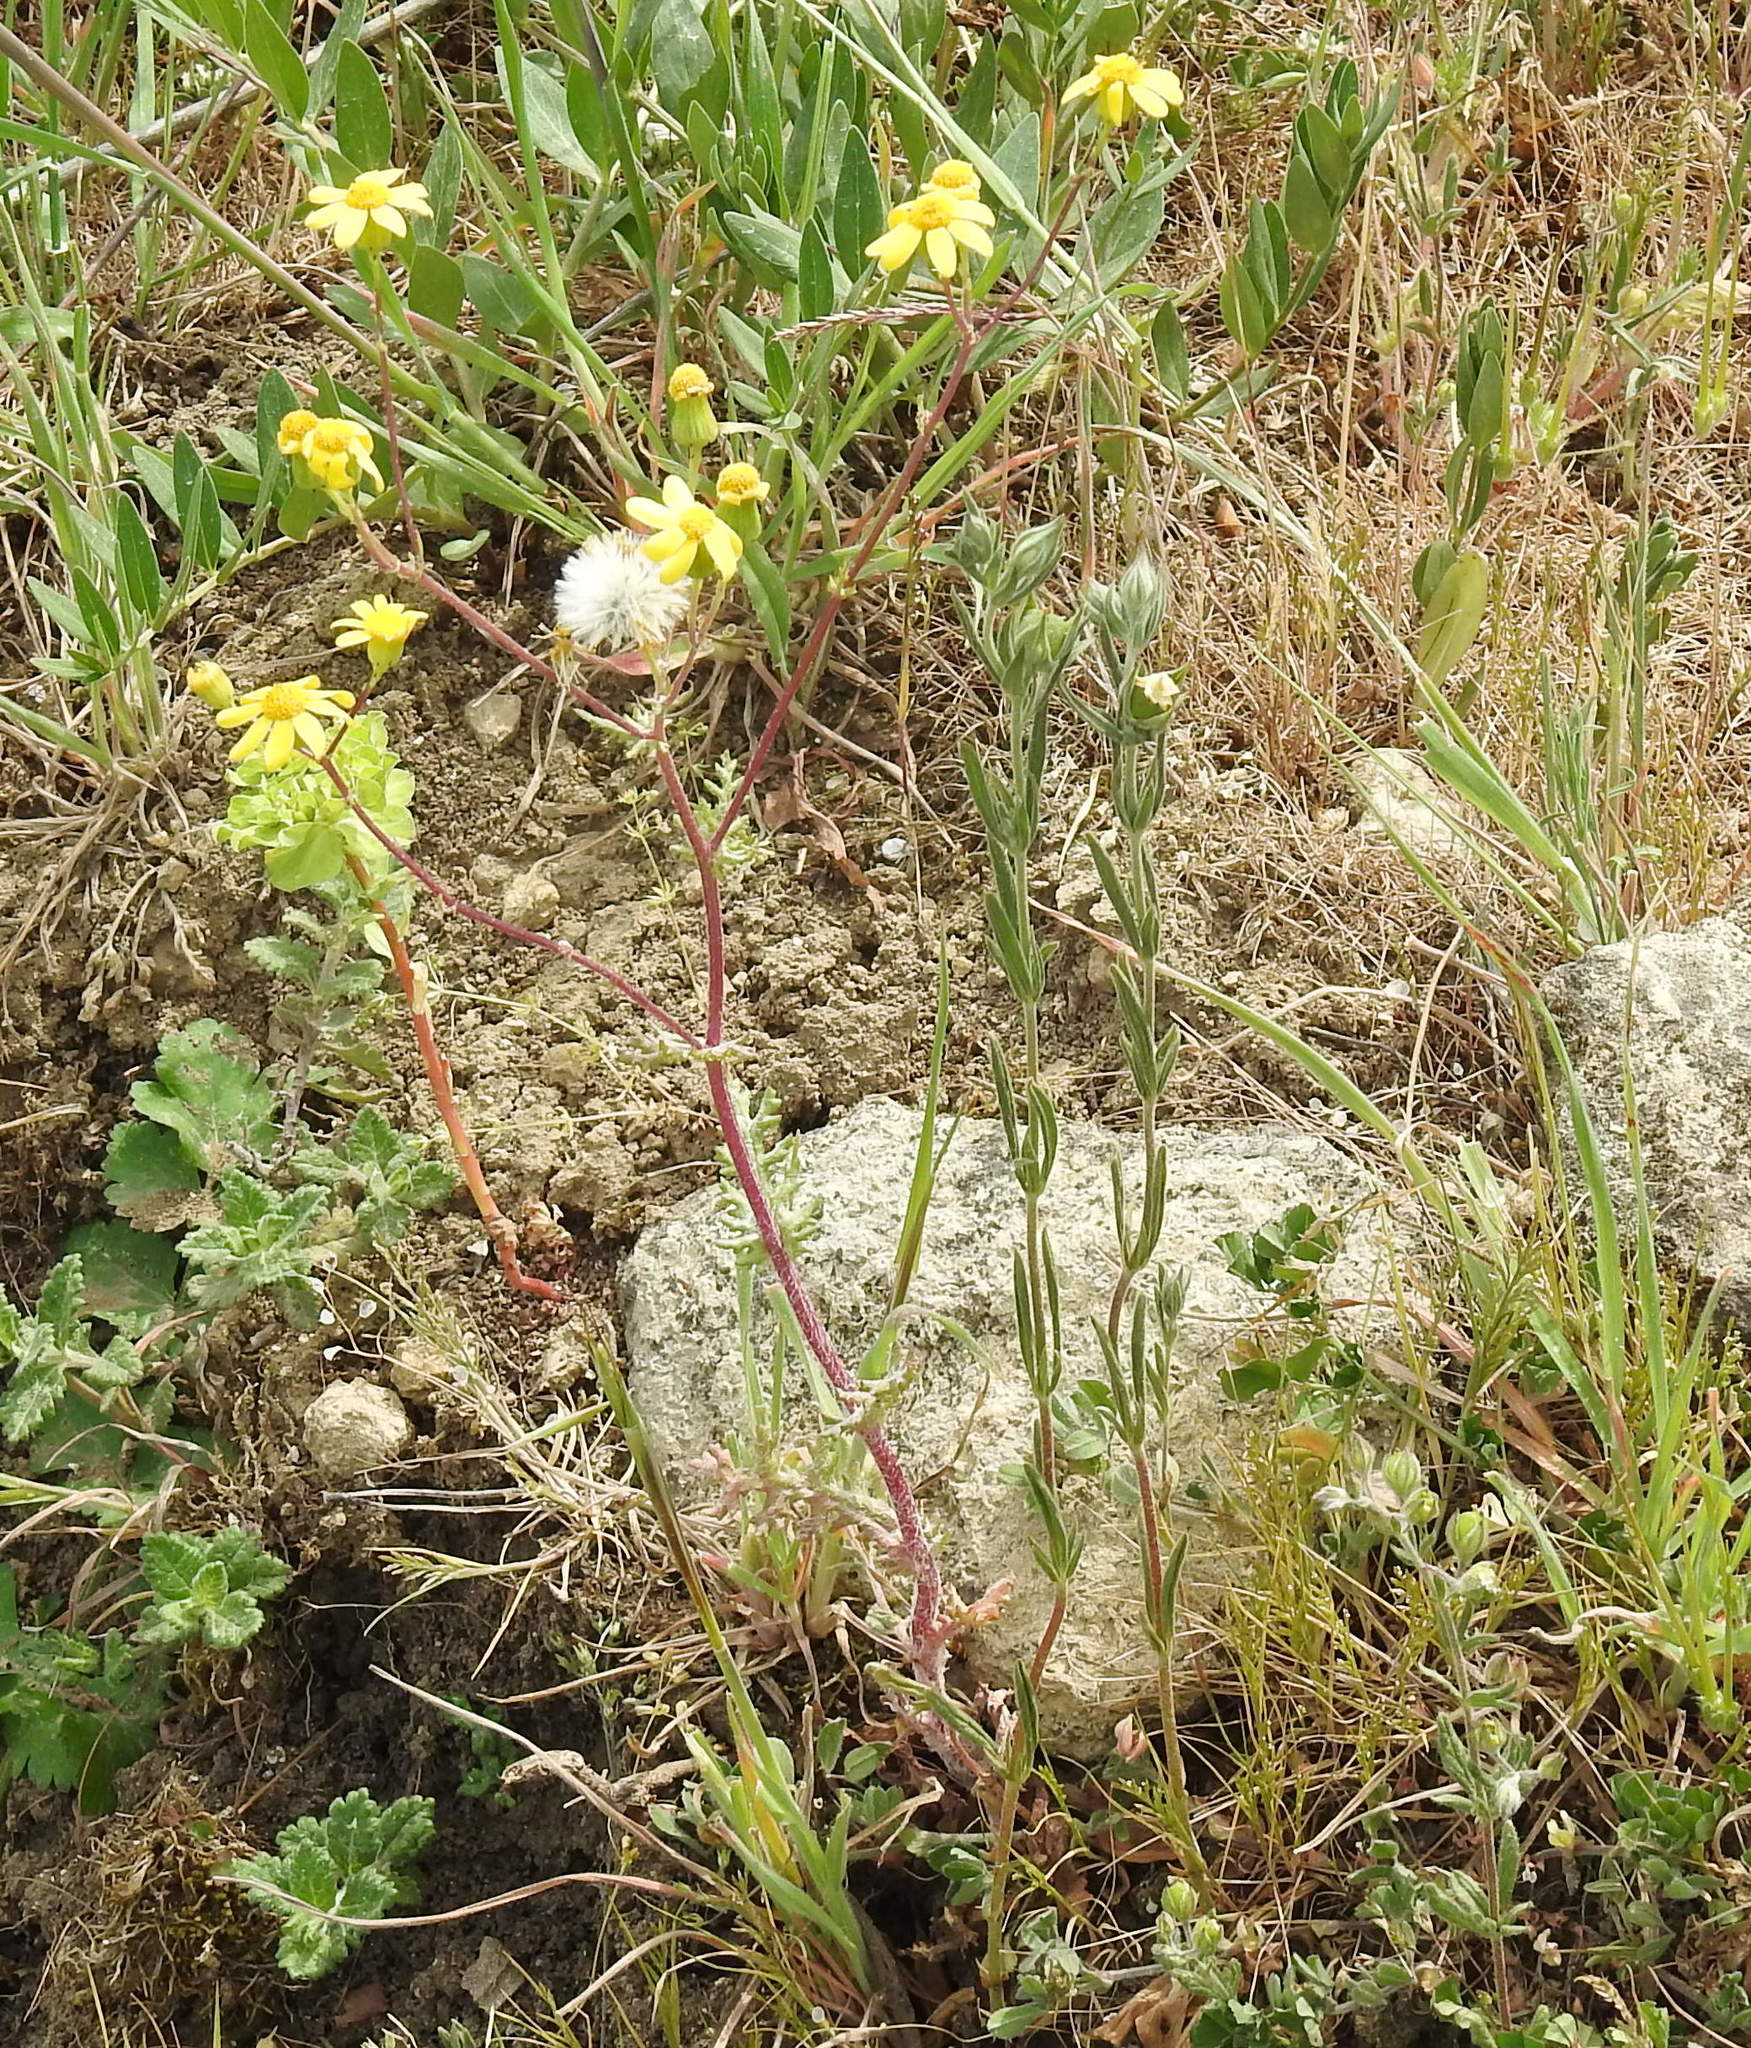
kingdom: Plantae
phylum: Tracheophyta
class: Magnoliopsida
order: Asterales
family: Asteraceae
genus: Senecio
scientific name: Senecio vernalis
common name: Eastern groundsel
